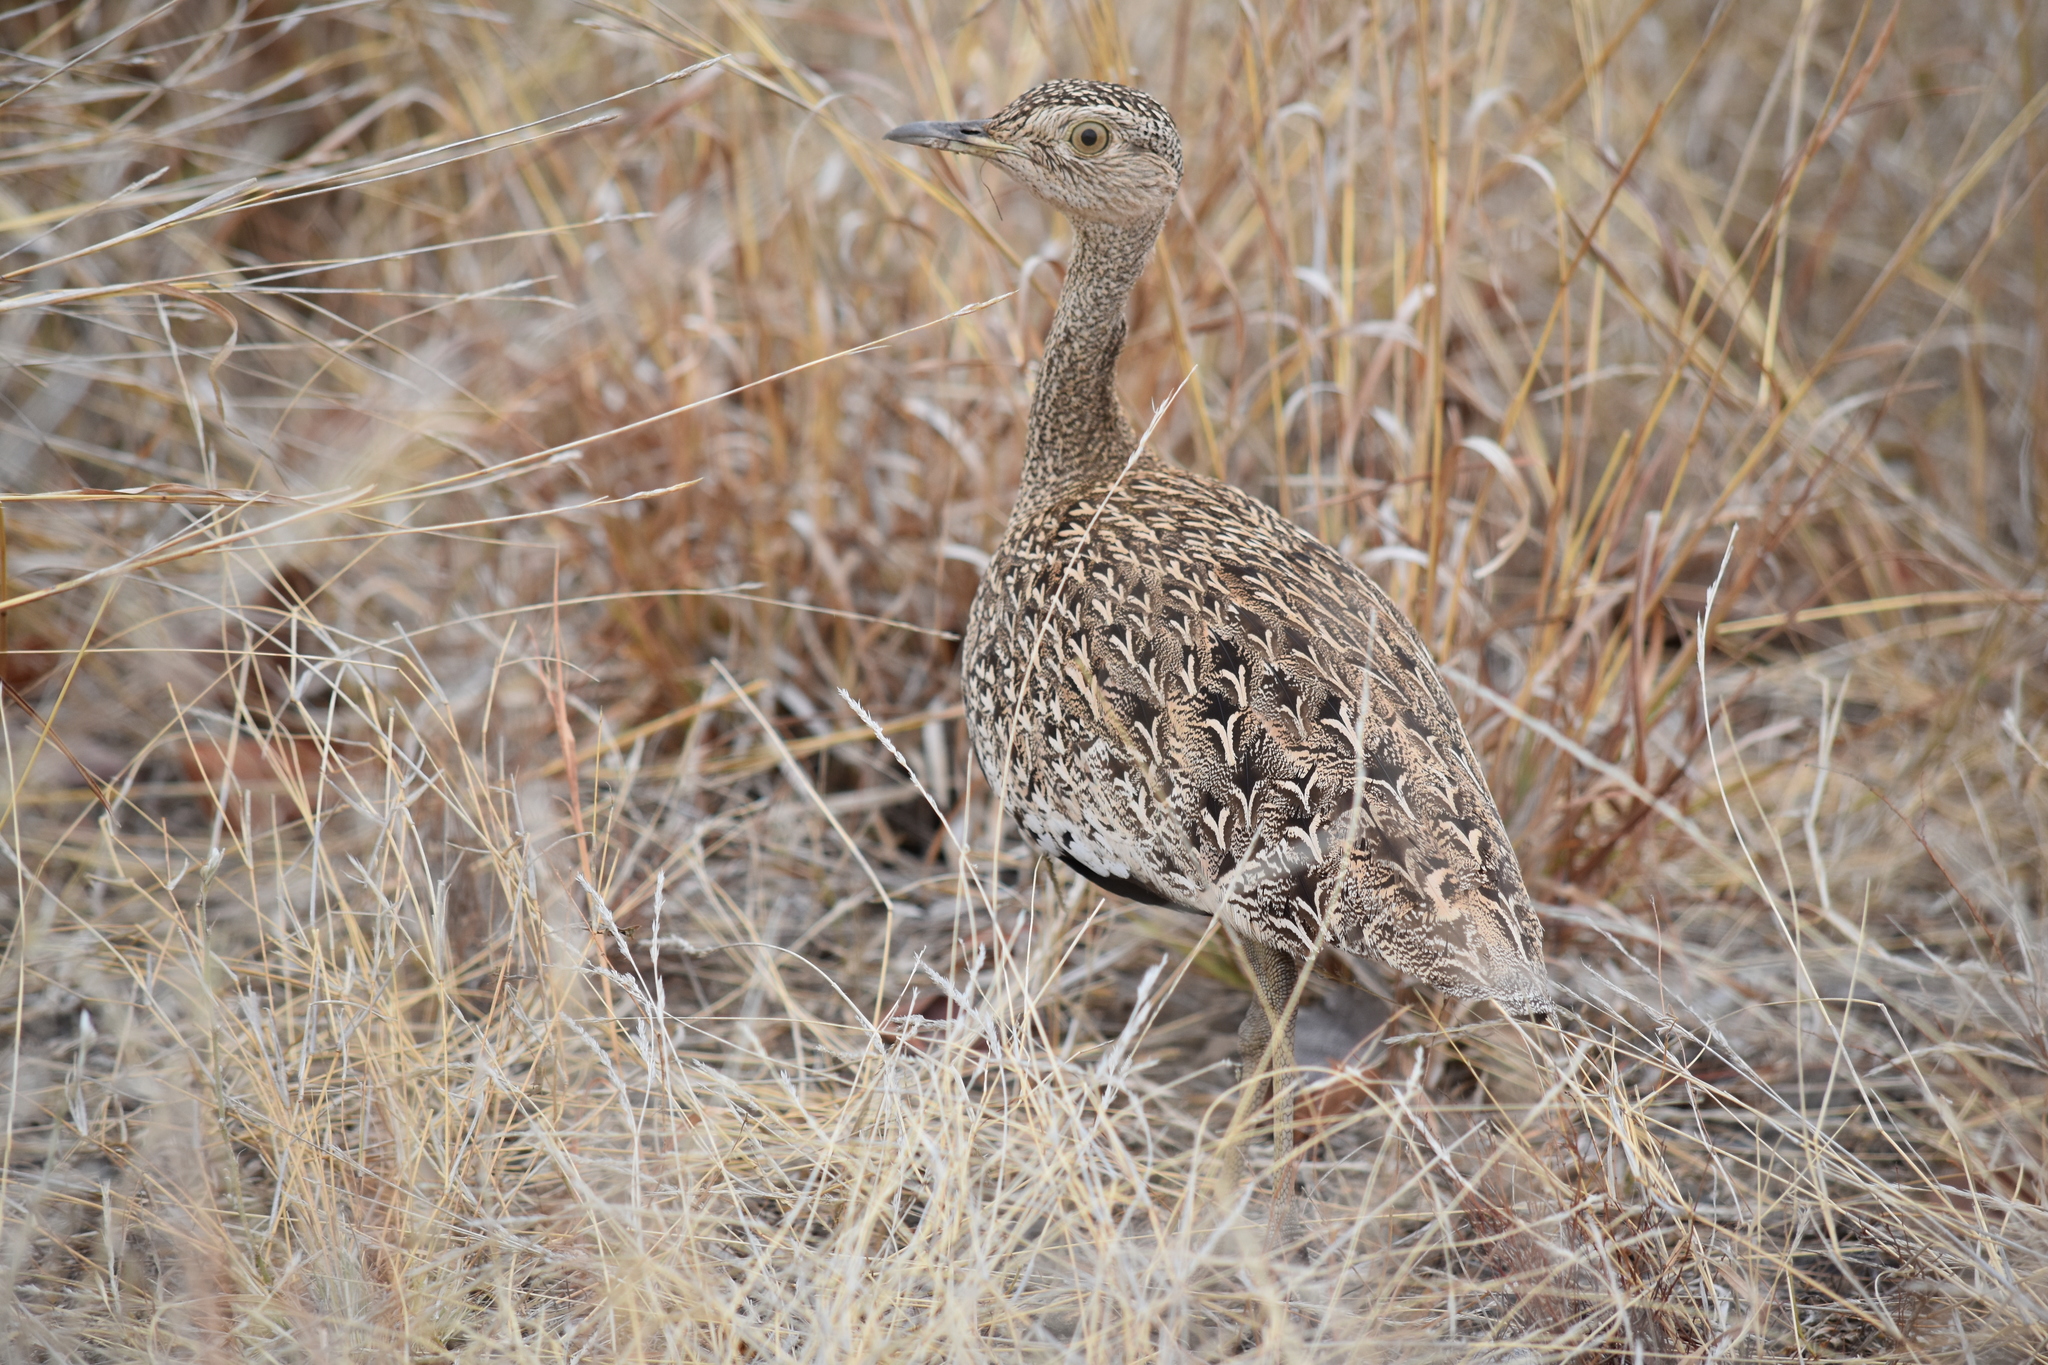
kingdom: Animalia
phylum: Chordata
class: Aves
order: Otidiformes
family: Otididae
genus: Lophotis
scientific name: Lophotis ruficrista
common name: Red-crested korhaan
